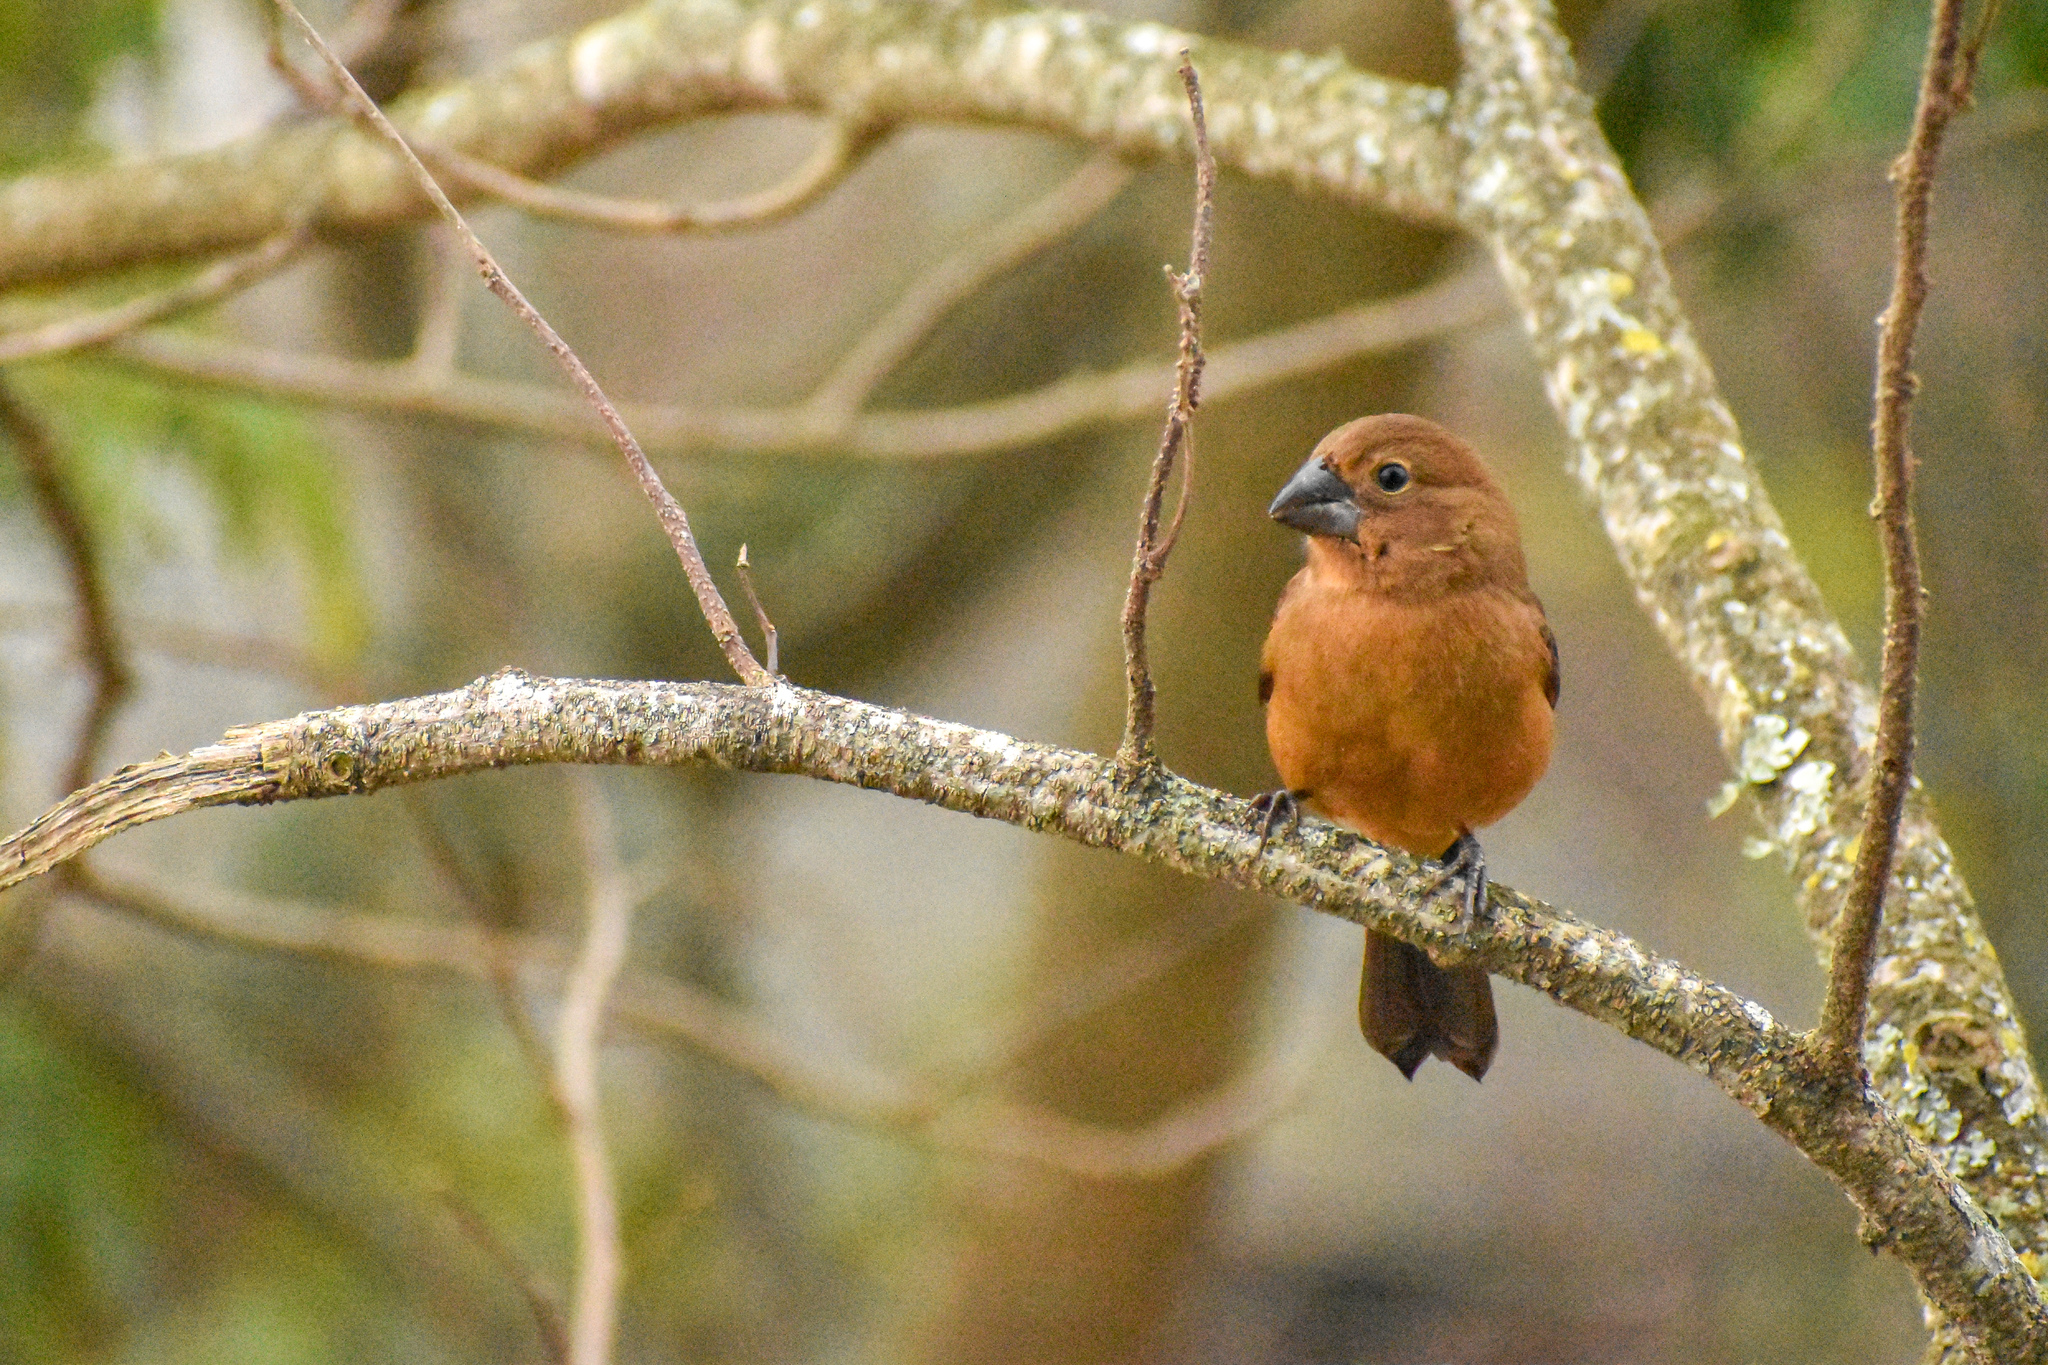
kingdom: Animalia
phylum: Chordata
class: Aves
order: Passeriformes
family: Cardinalidae
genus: Cyanoloxia
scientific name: Cyanoloxia brissonii
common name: Ultramarine grosbeak
